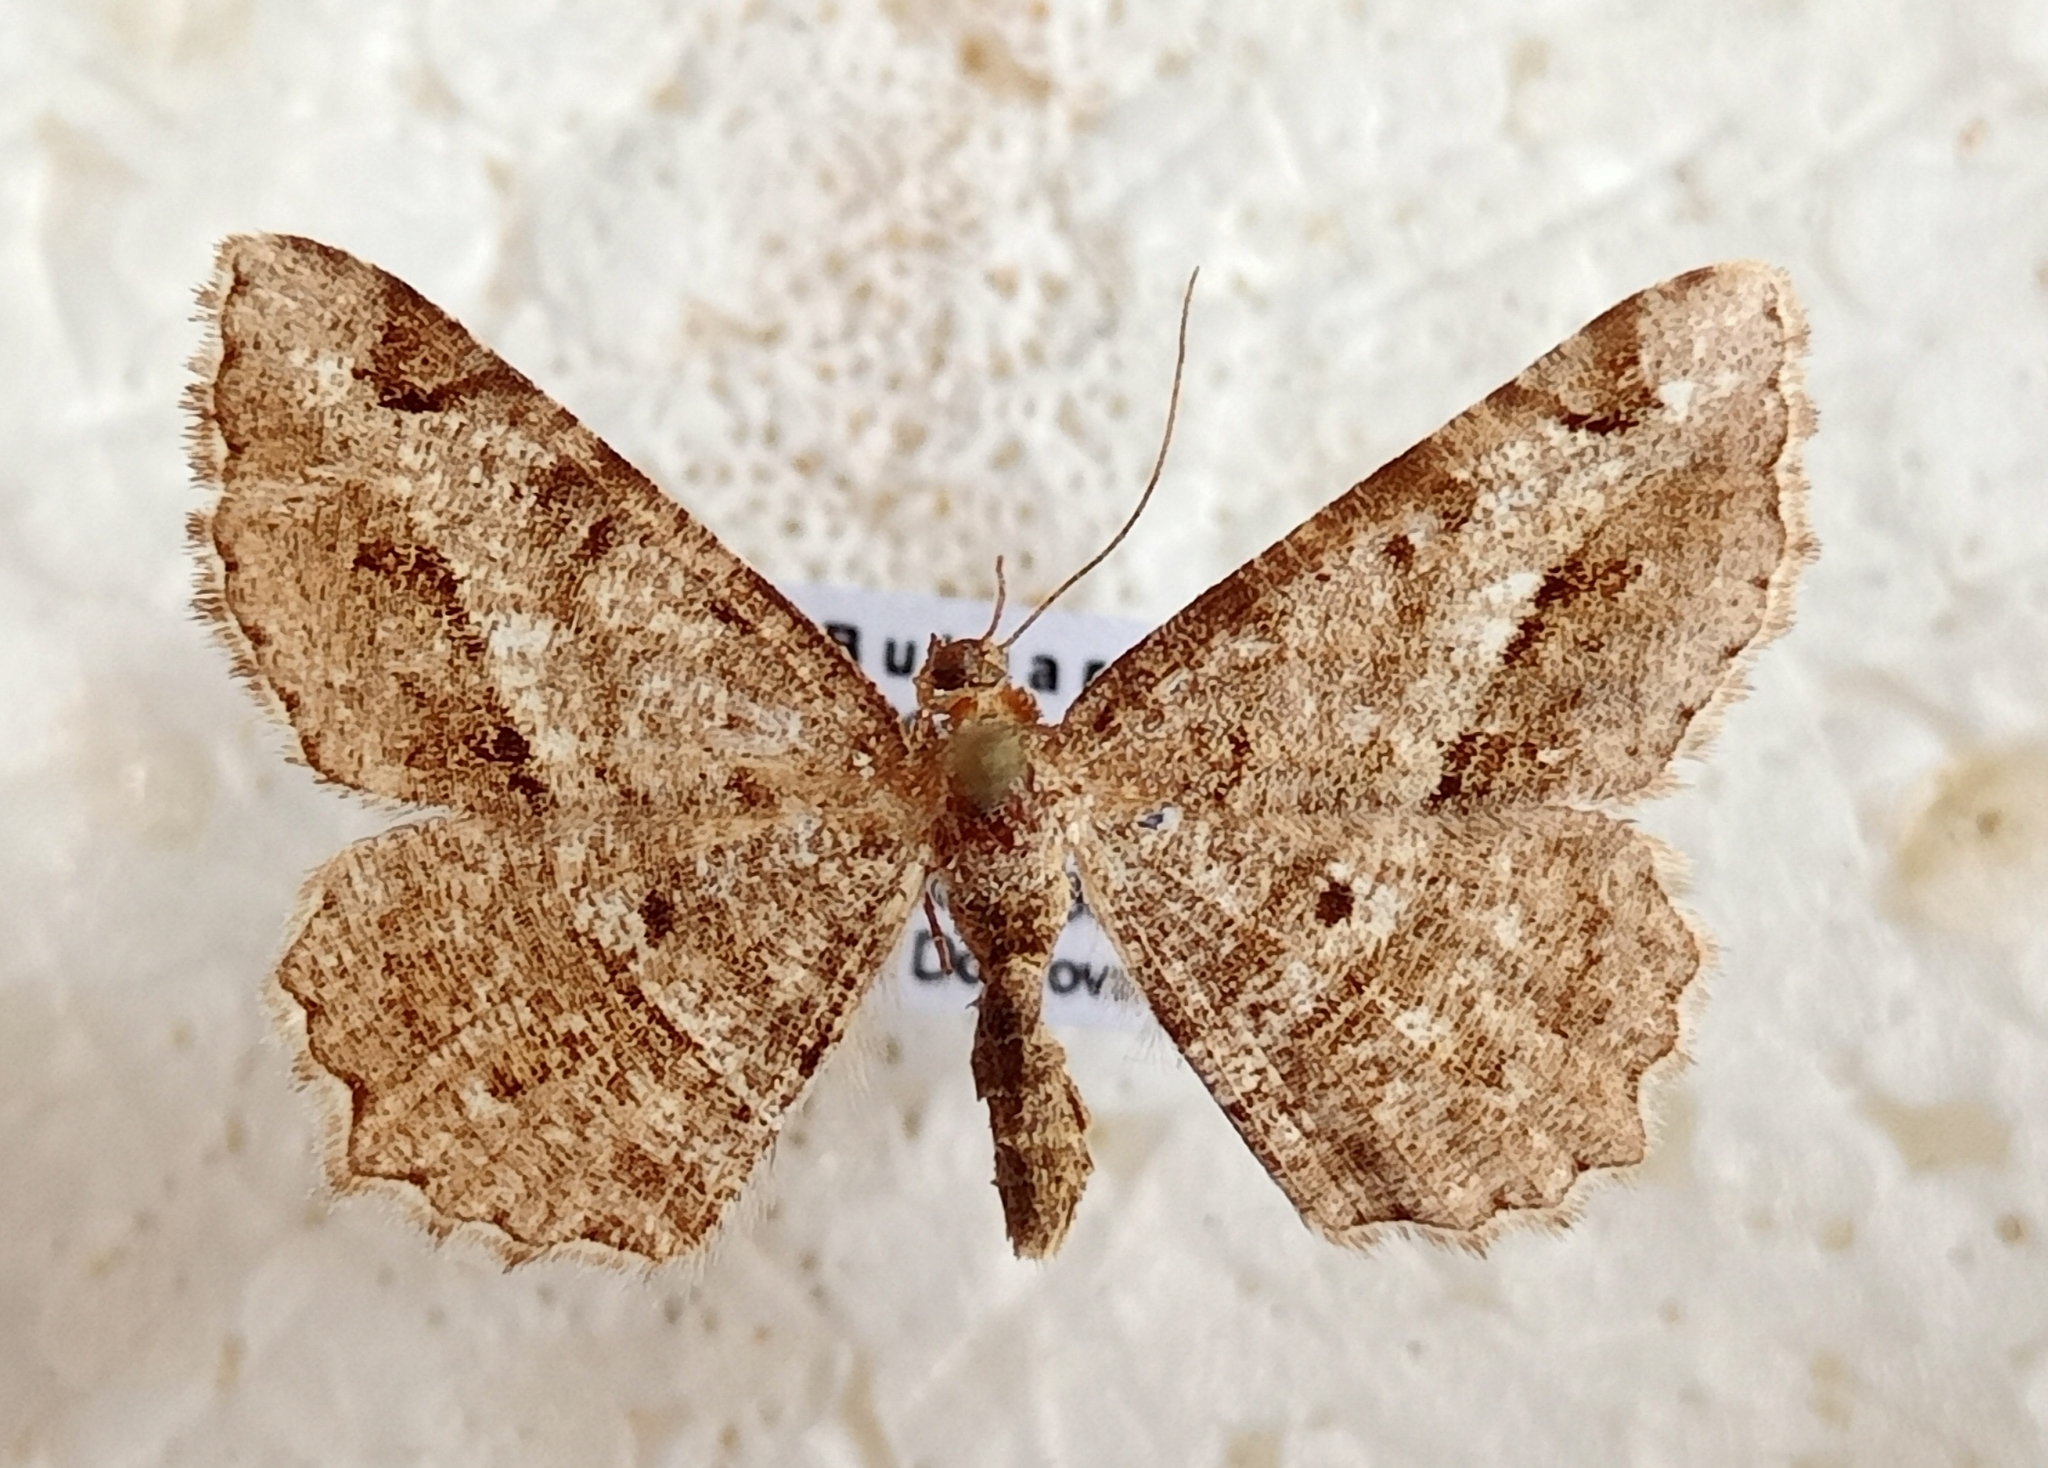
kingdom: Animalia
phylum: Arthropoda
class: Insecta
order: Lepidoptera
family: Geometridae
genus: Chiasmia
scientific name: Chiasmia aestimaria
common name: Tamarisk peacock
